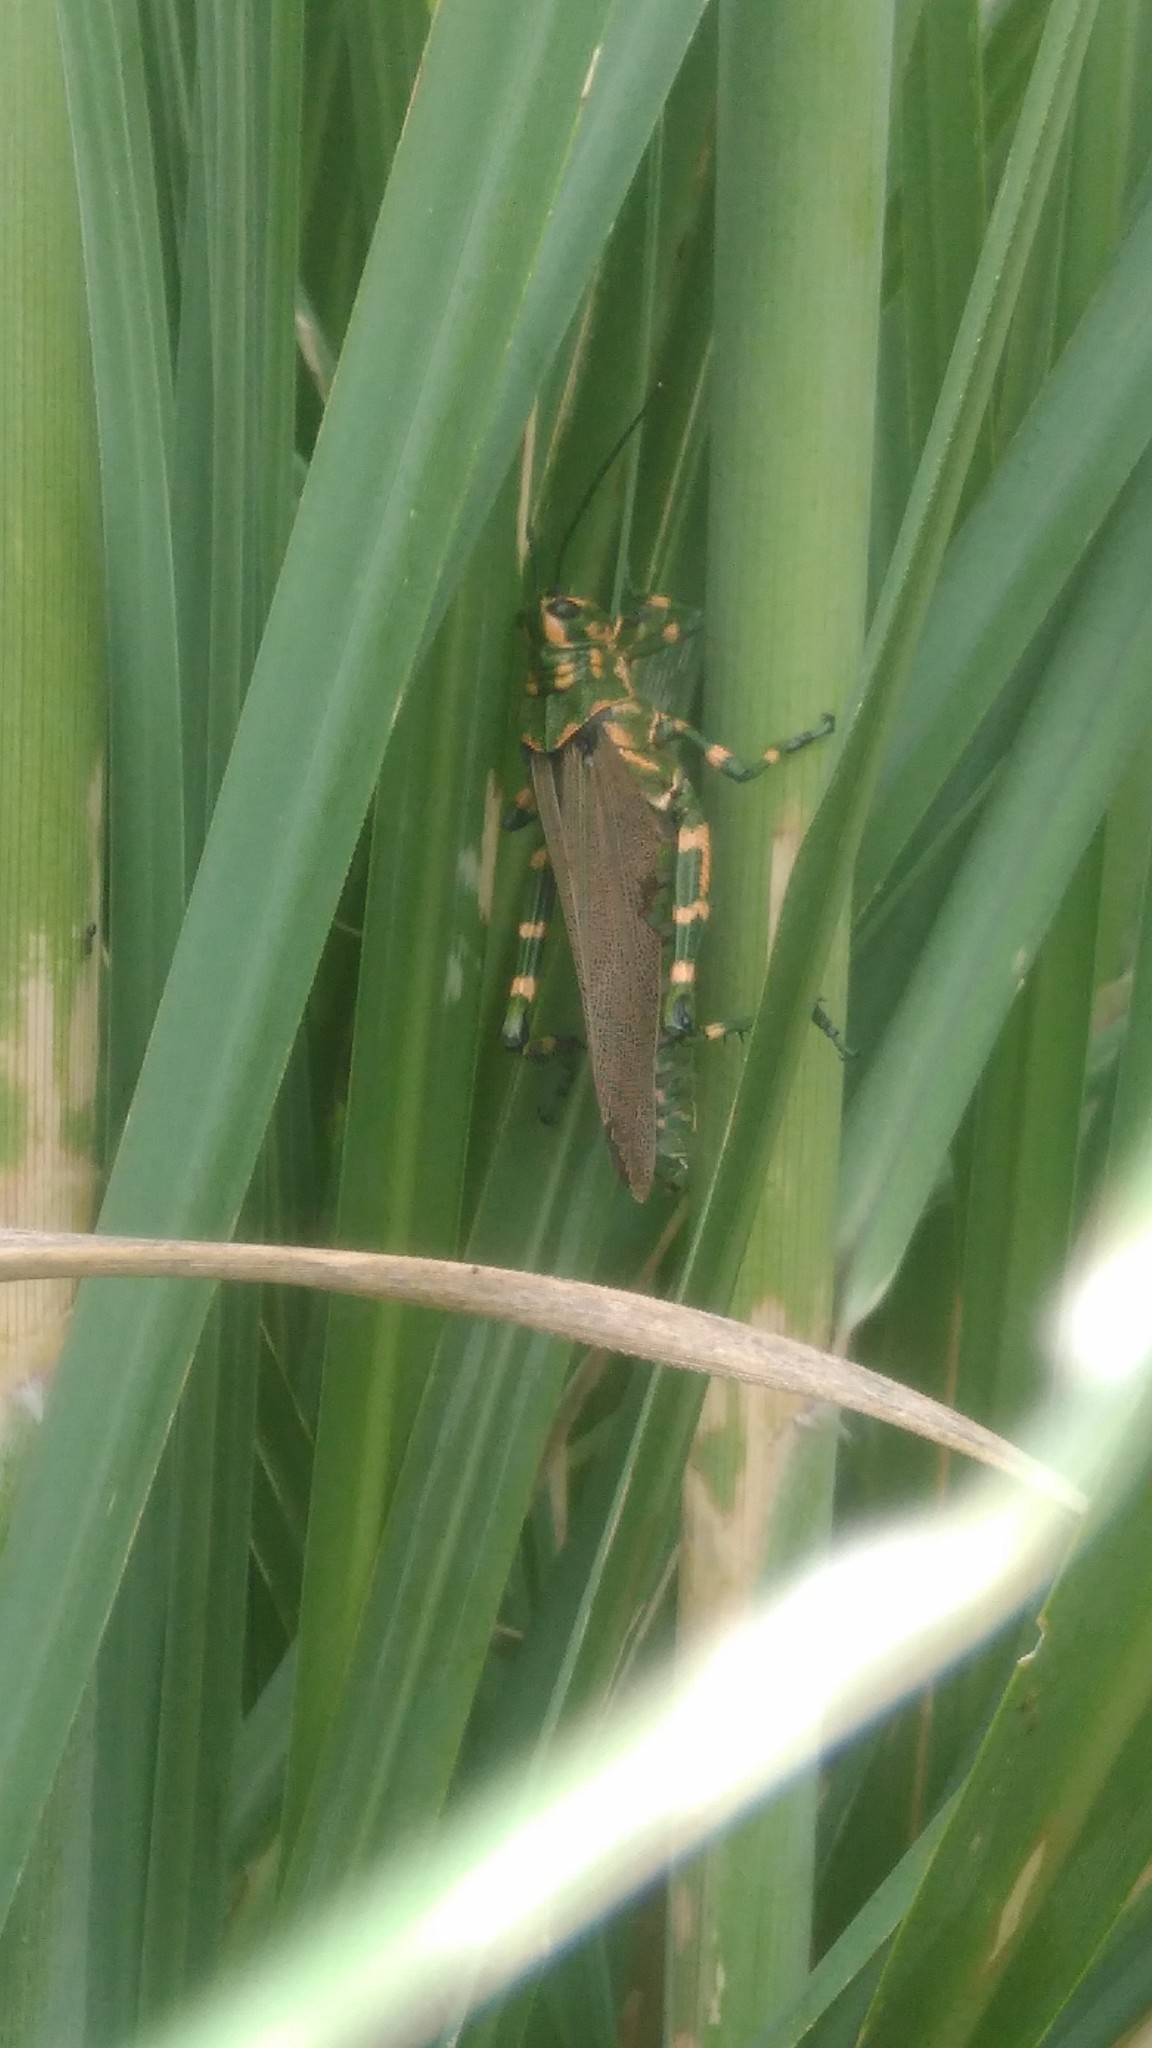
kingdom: Animalia
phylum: Arthropoda
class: Insecta
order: Orthoptera
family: Romaleidae
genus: Chromacris
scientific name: Chromacris speciosa
